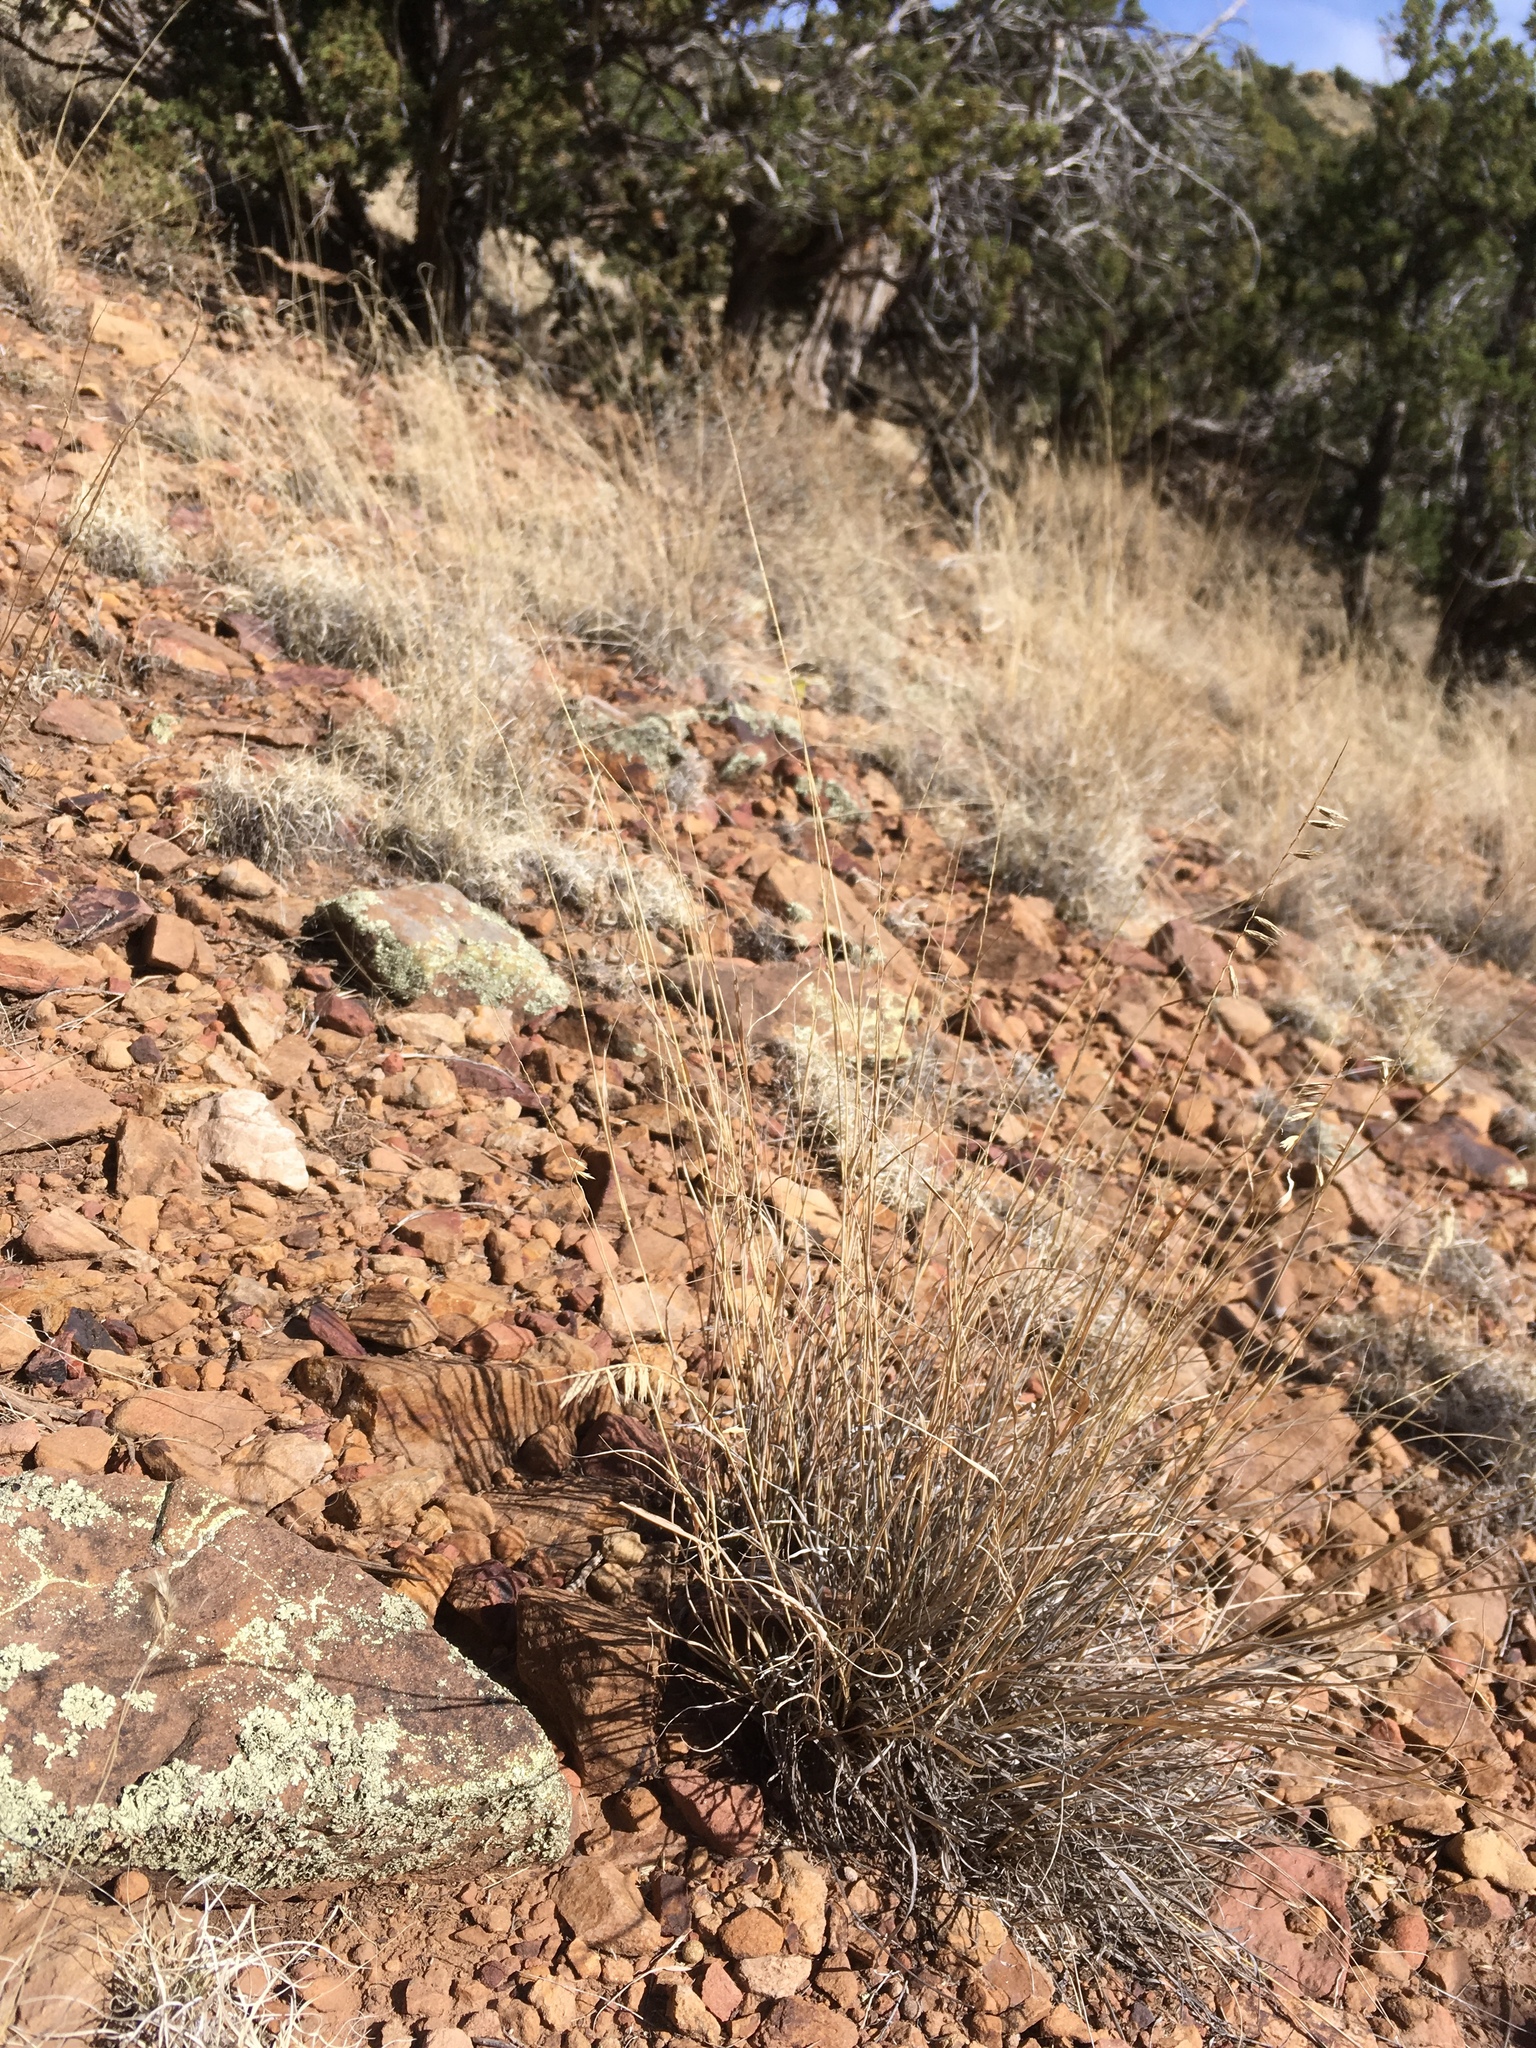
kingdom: Plantae
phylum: Tracheophyta
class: Liliopsida
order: Poales
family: Poaceae
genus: Bouteloua
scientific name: Bouteloua curtipendula
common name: Side-oats grama
